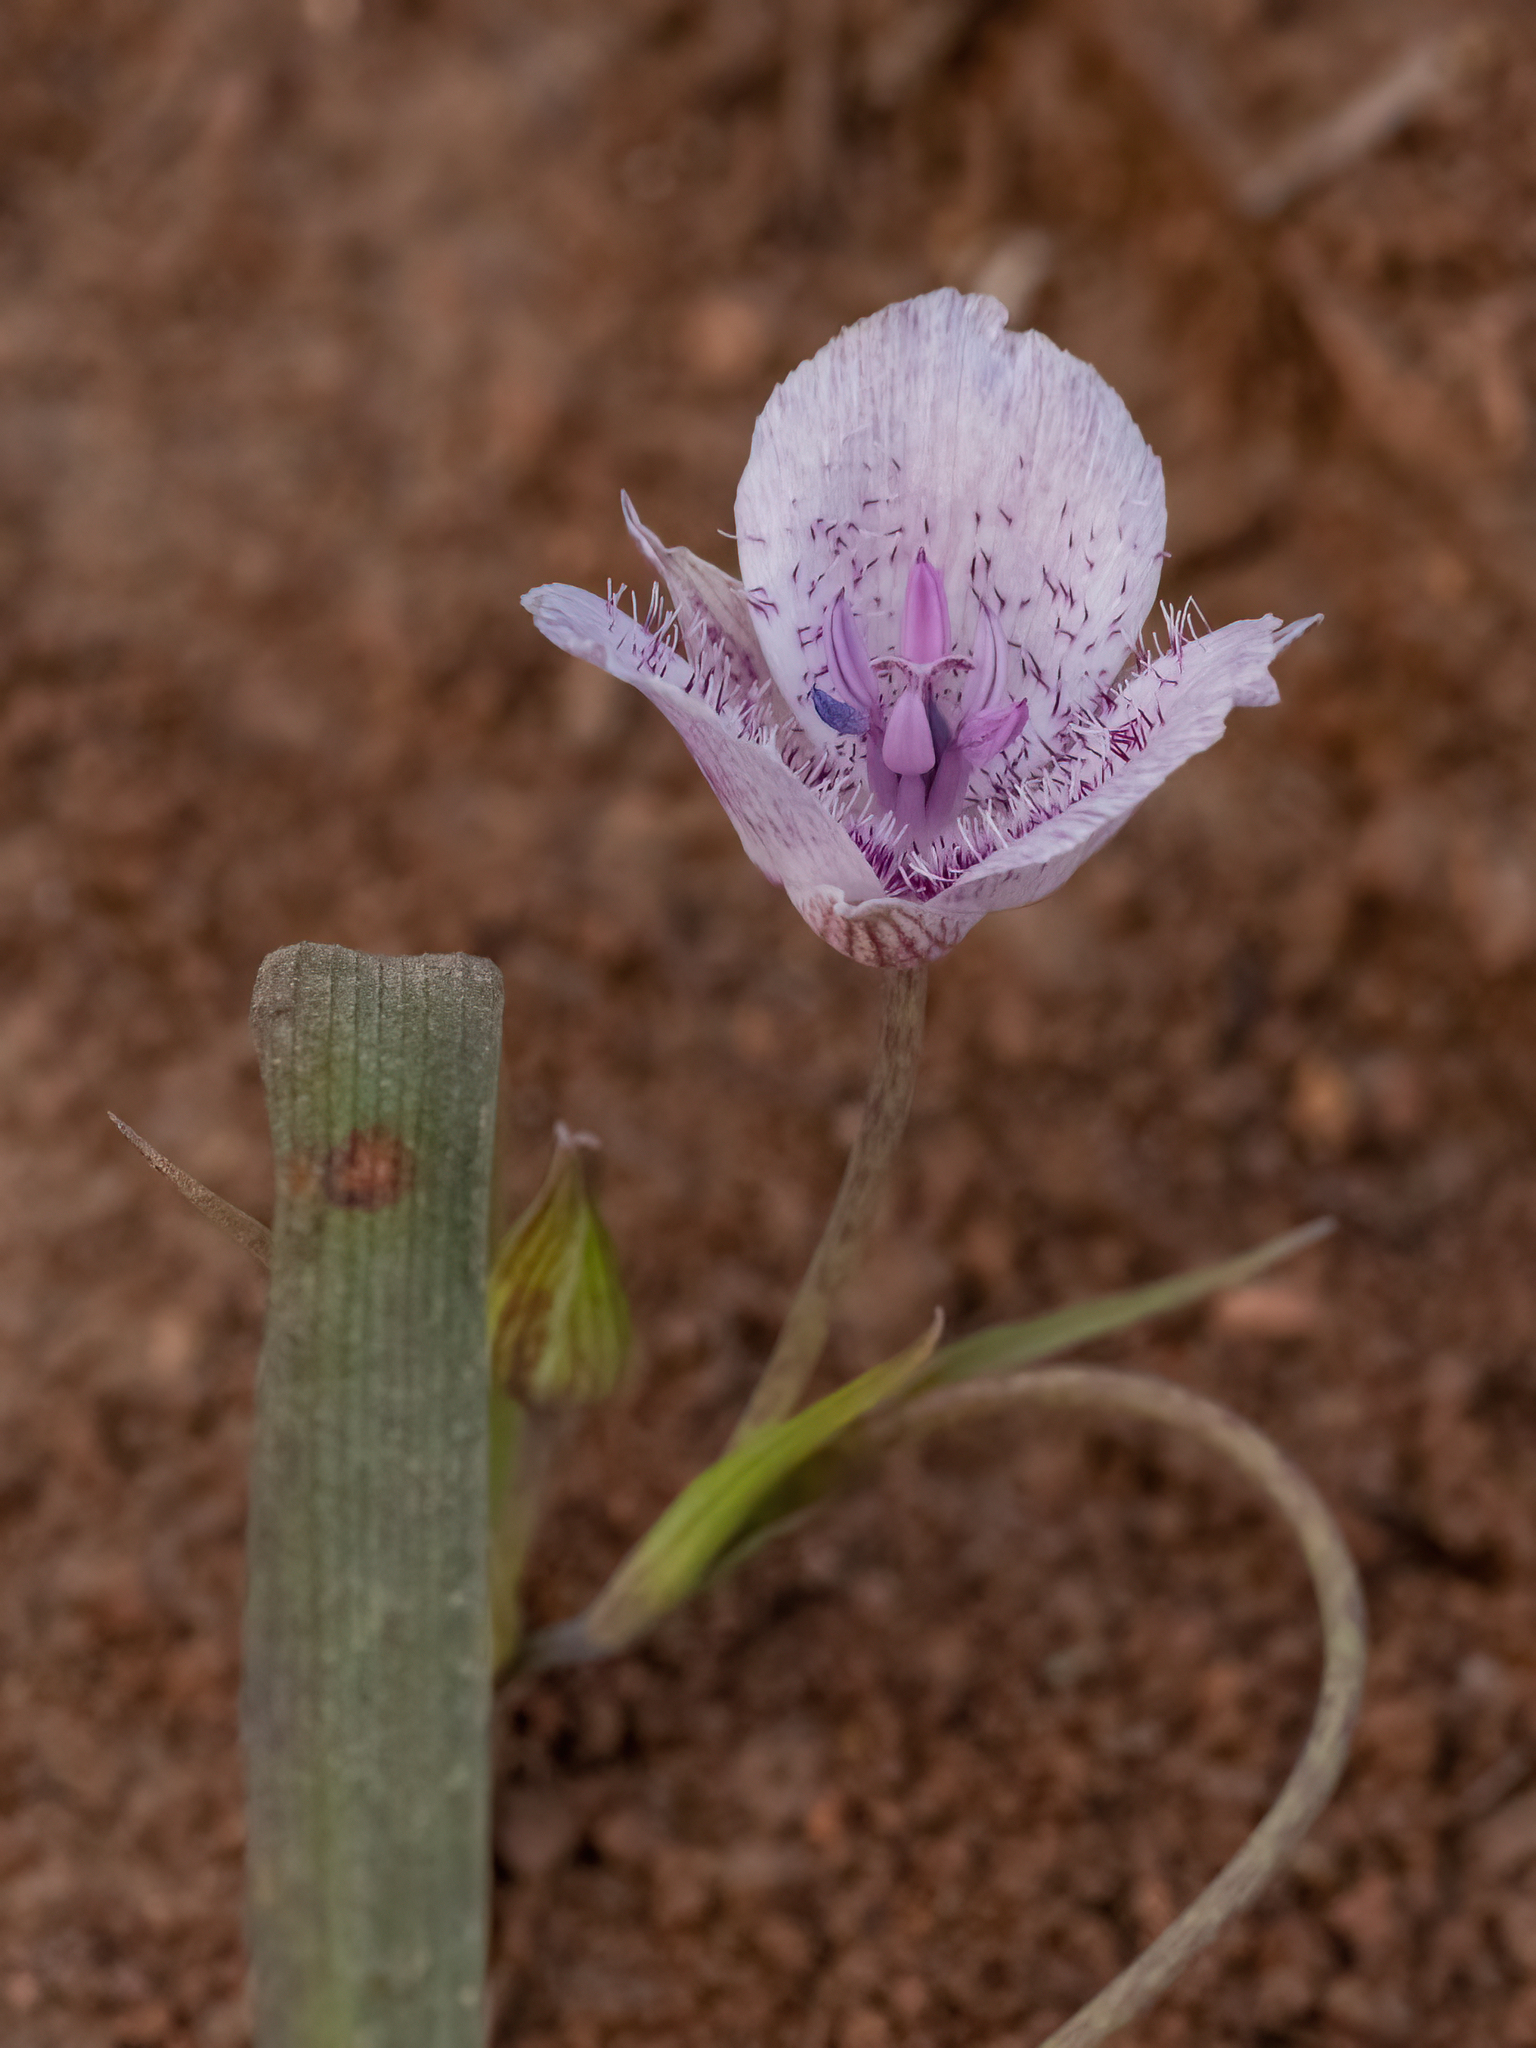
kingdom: Plantae
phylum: Tracheophyta
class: Liliopsida
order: Liliales
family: Liliaceae
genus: Calochortus
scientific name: Calochortus tolmiei
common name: Pussy-ears
